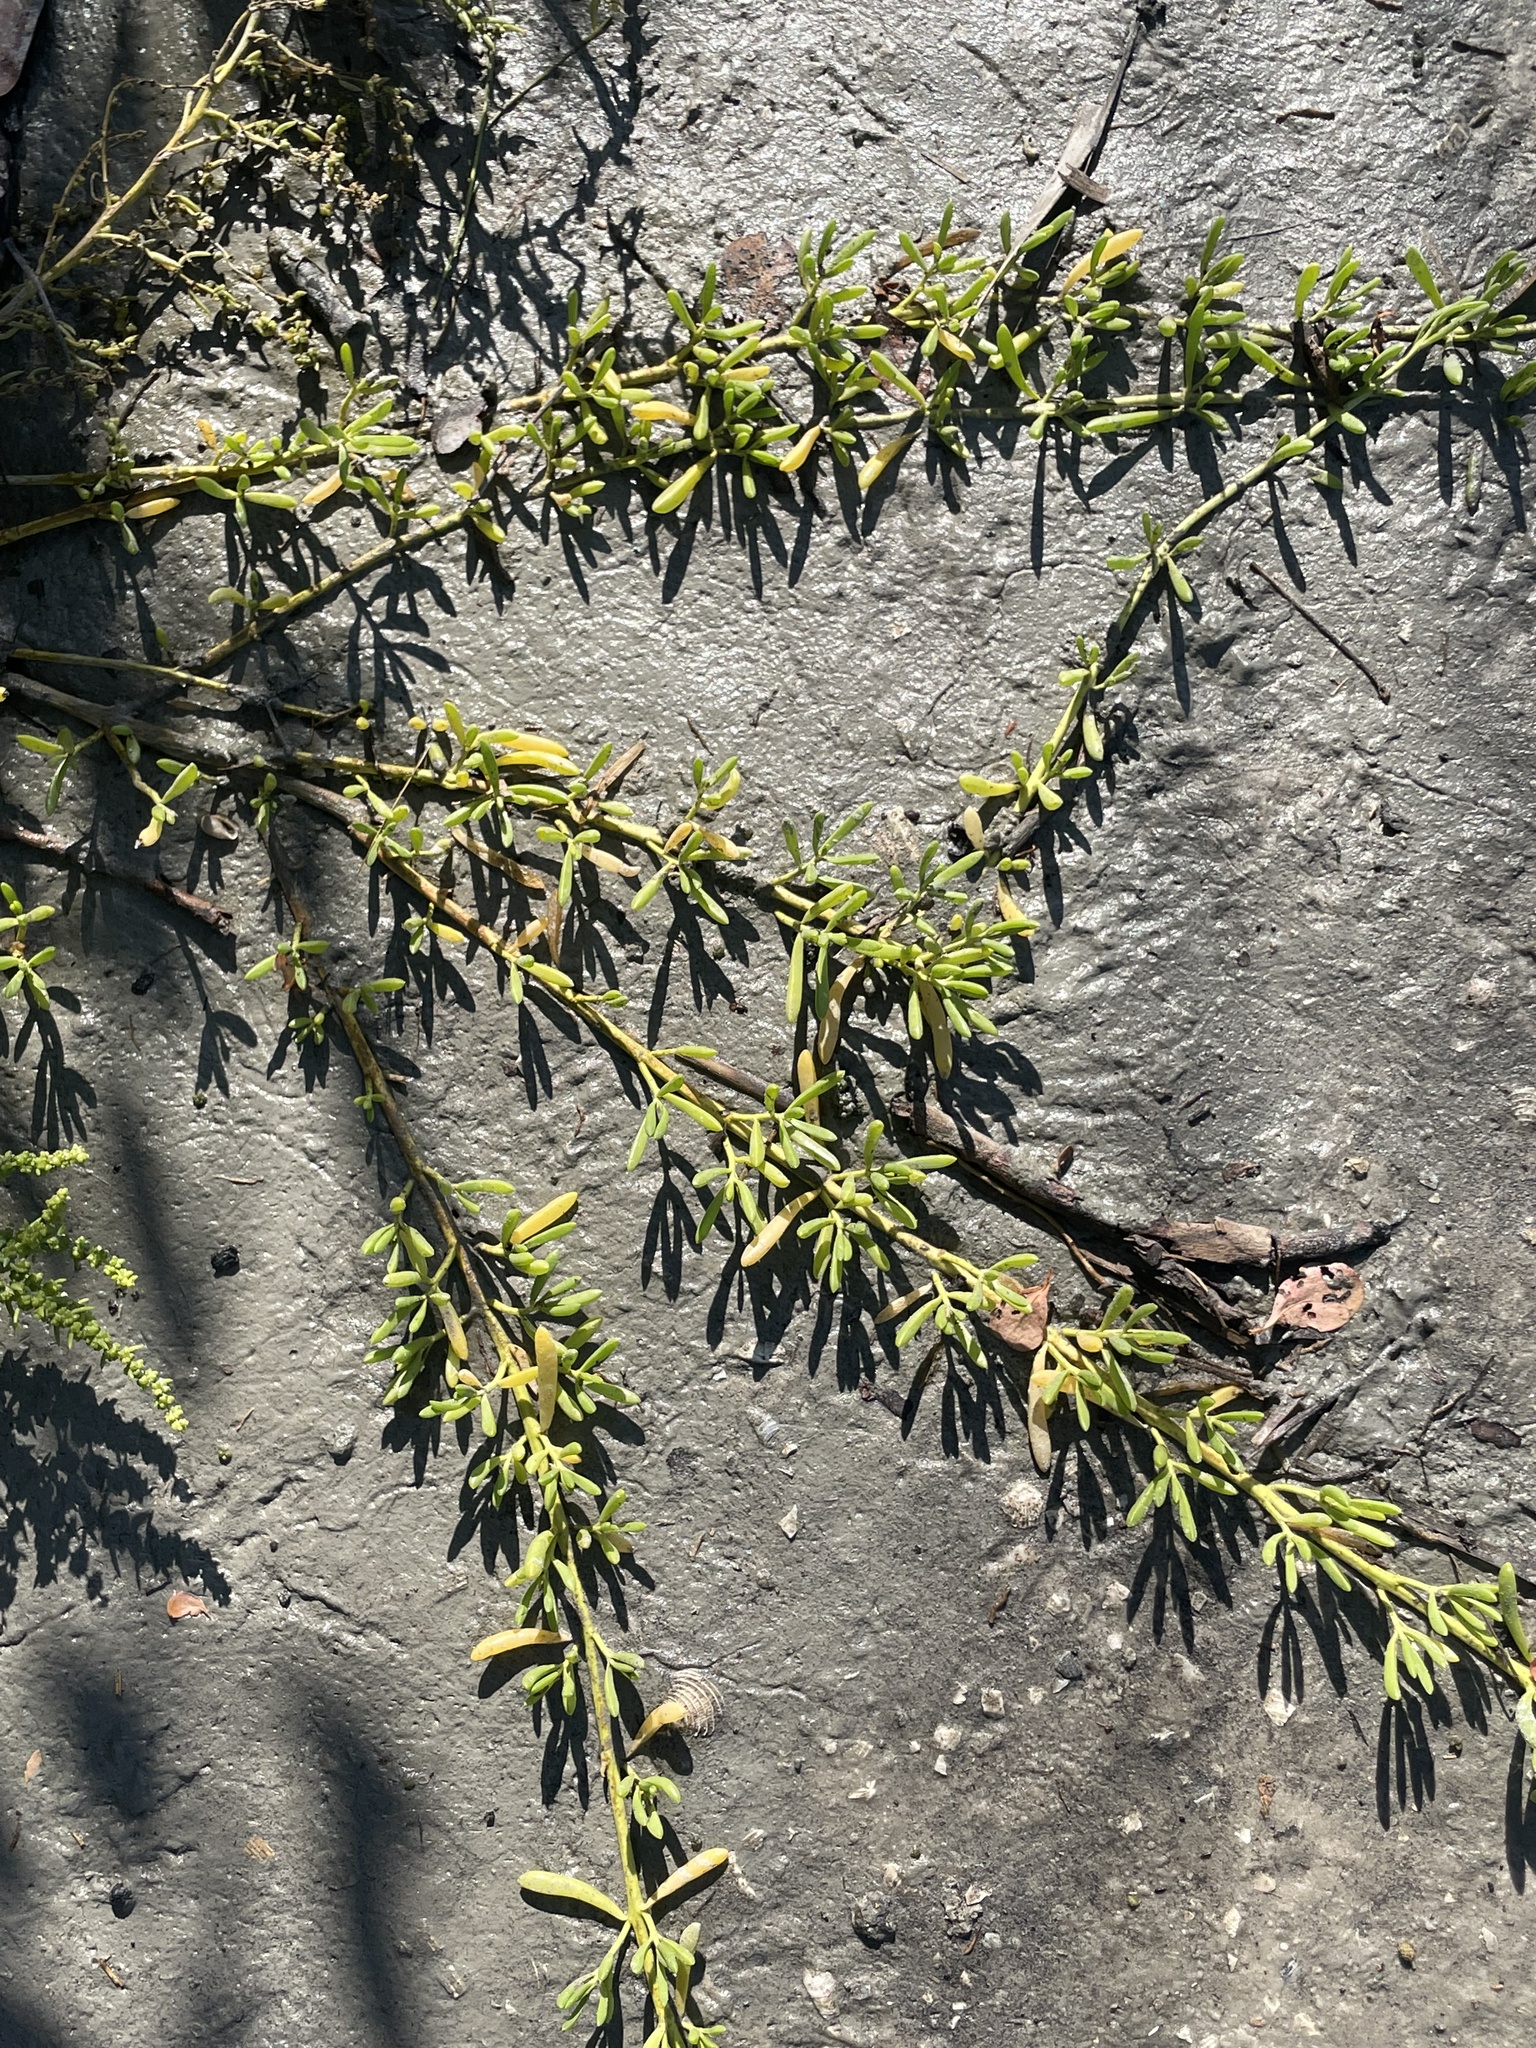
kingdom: Plantae
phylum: Tracheophyta
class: Magnoliopsida
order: Brassicales
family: Bataceae
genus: Batis
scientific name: Batis maritima
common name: Turtleweed
